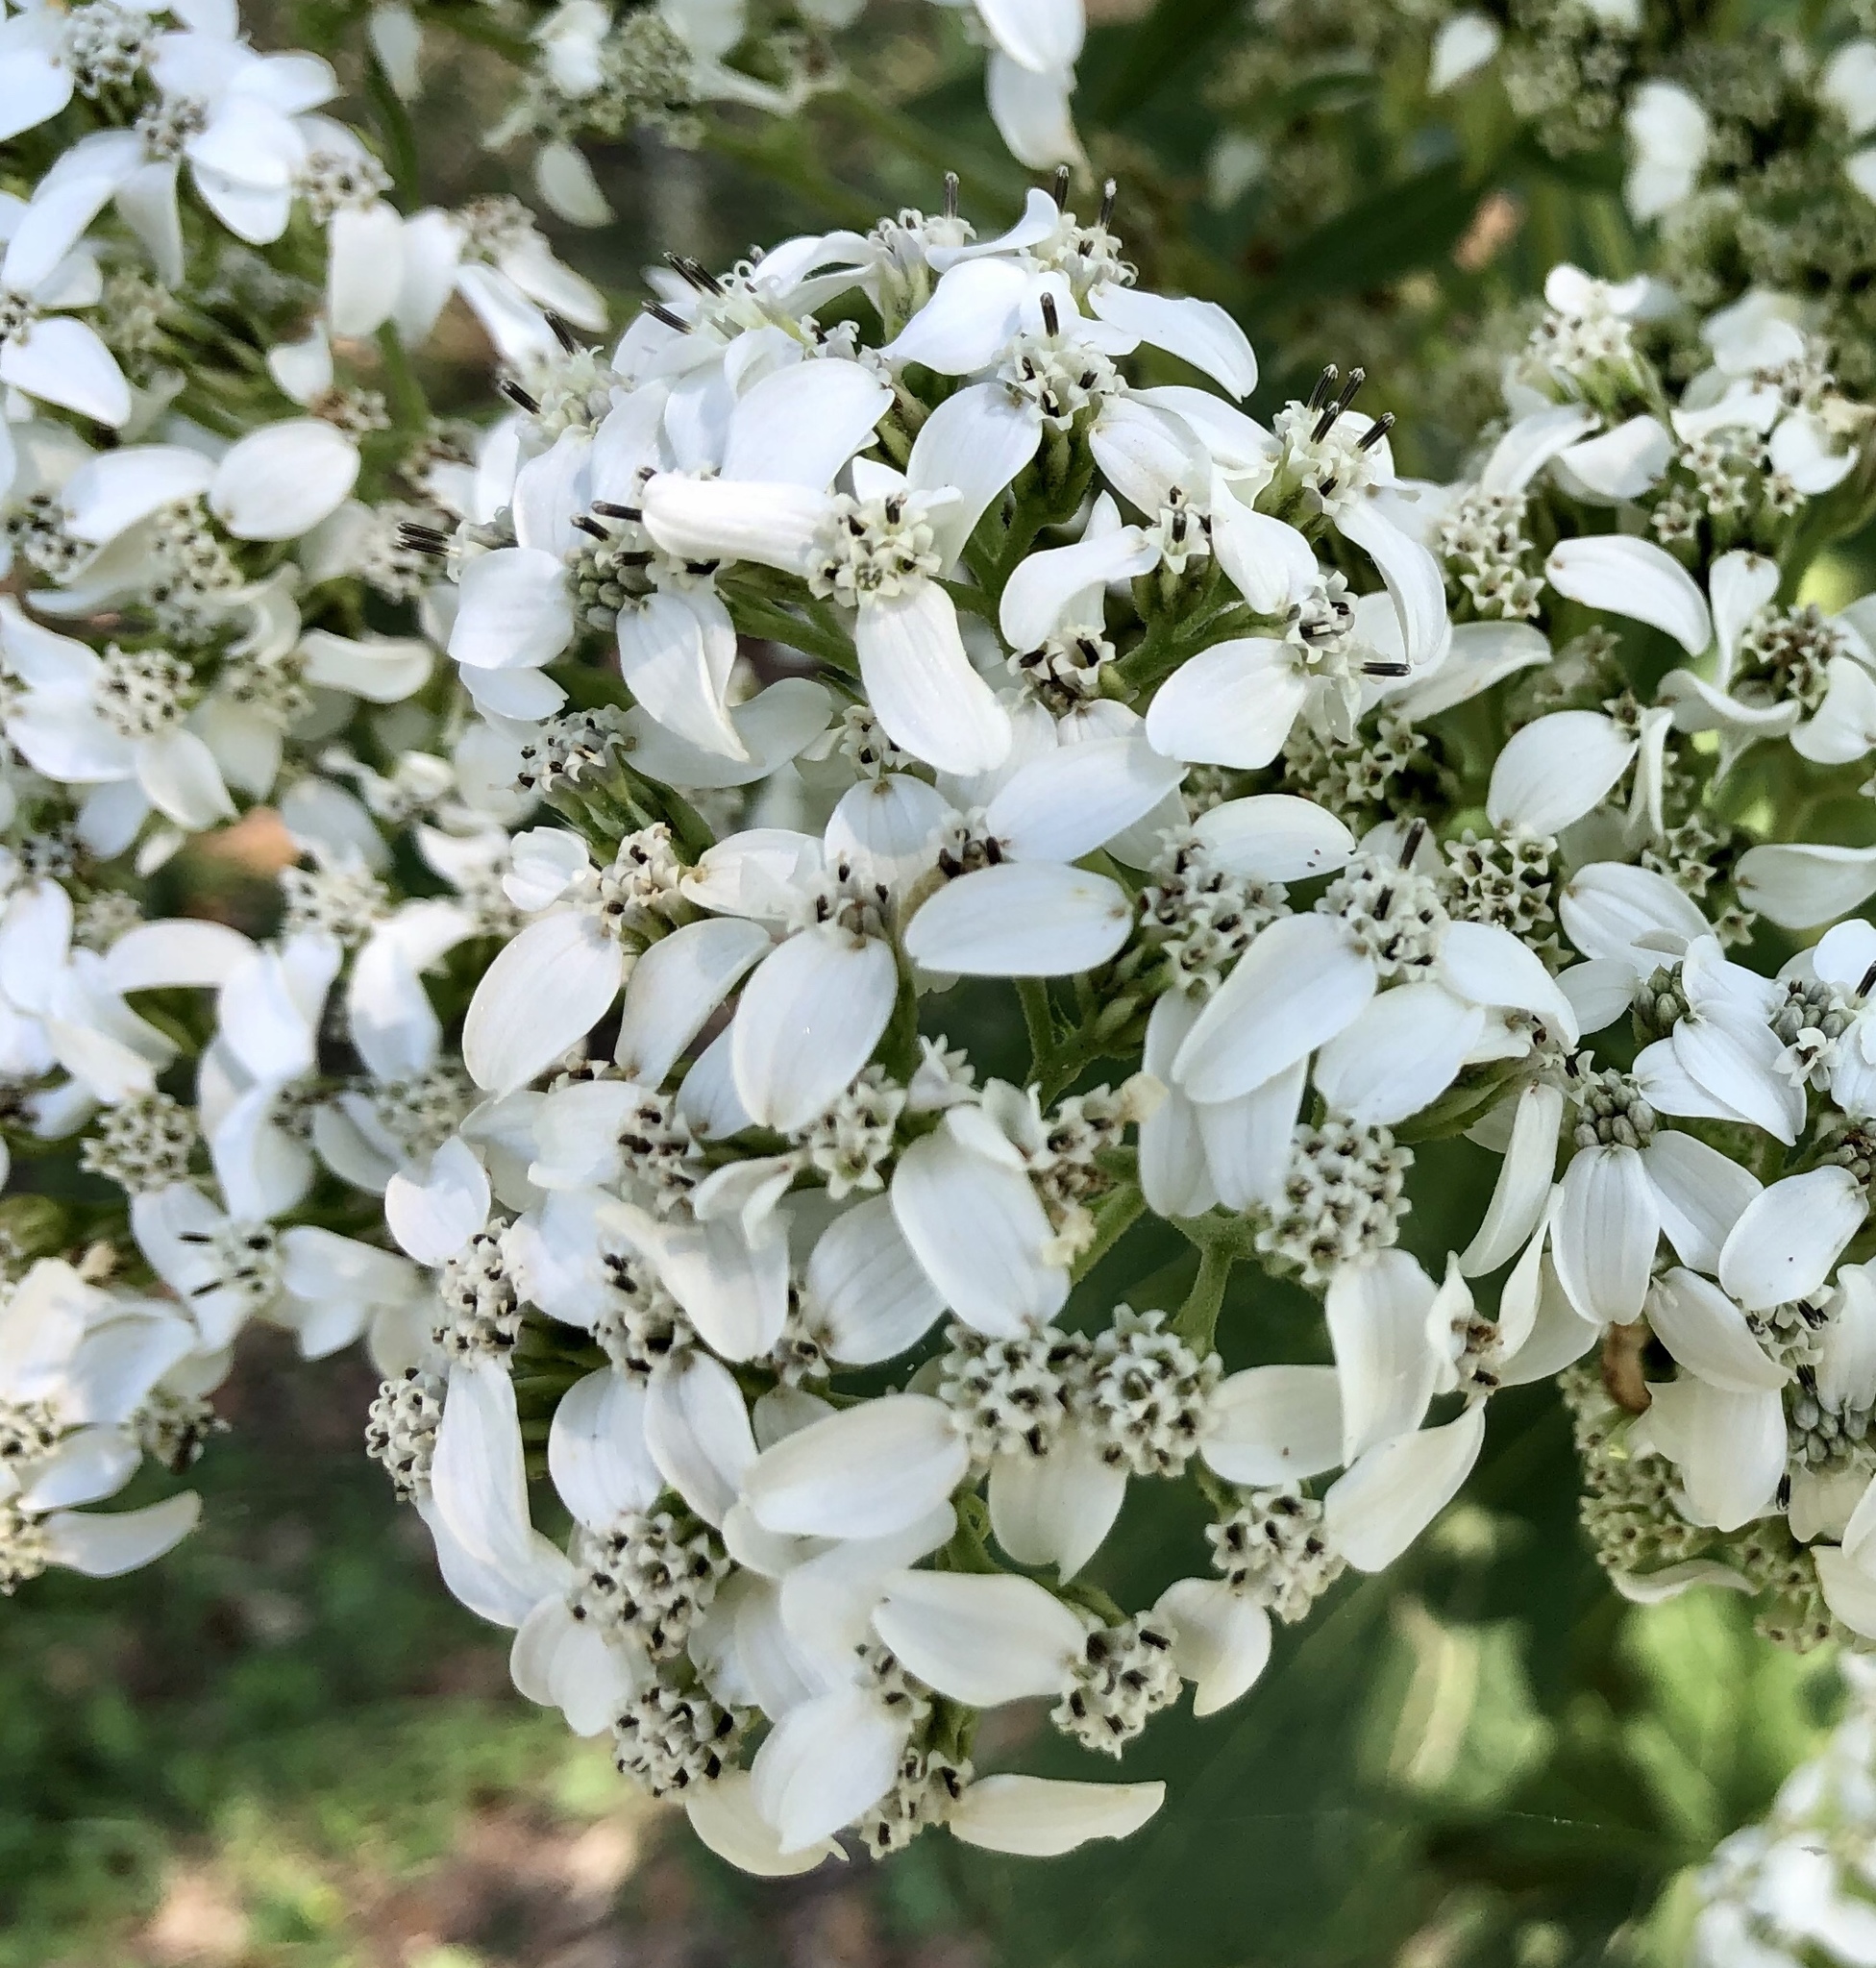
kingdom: Plantae
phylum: Tracheophyta
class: Magnoliopsida
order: Asterales
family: Asteraceae
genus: Verbesina
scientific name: Verbesina virginica
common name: Frostweed
